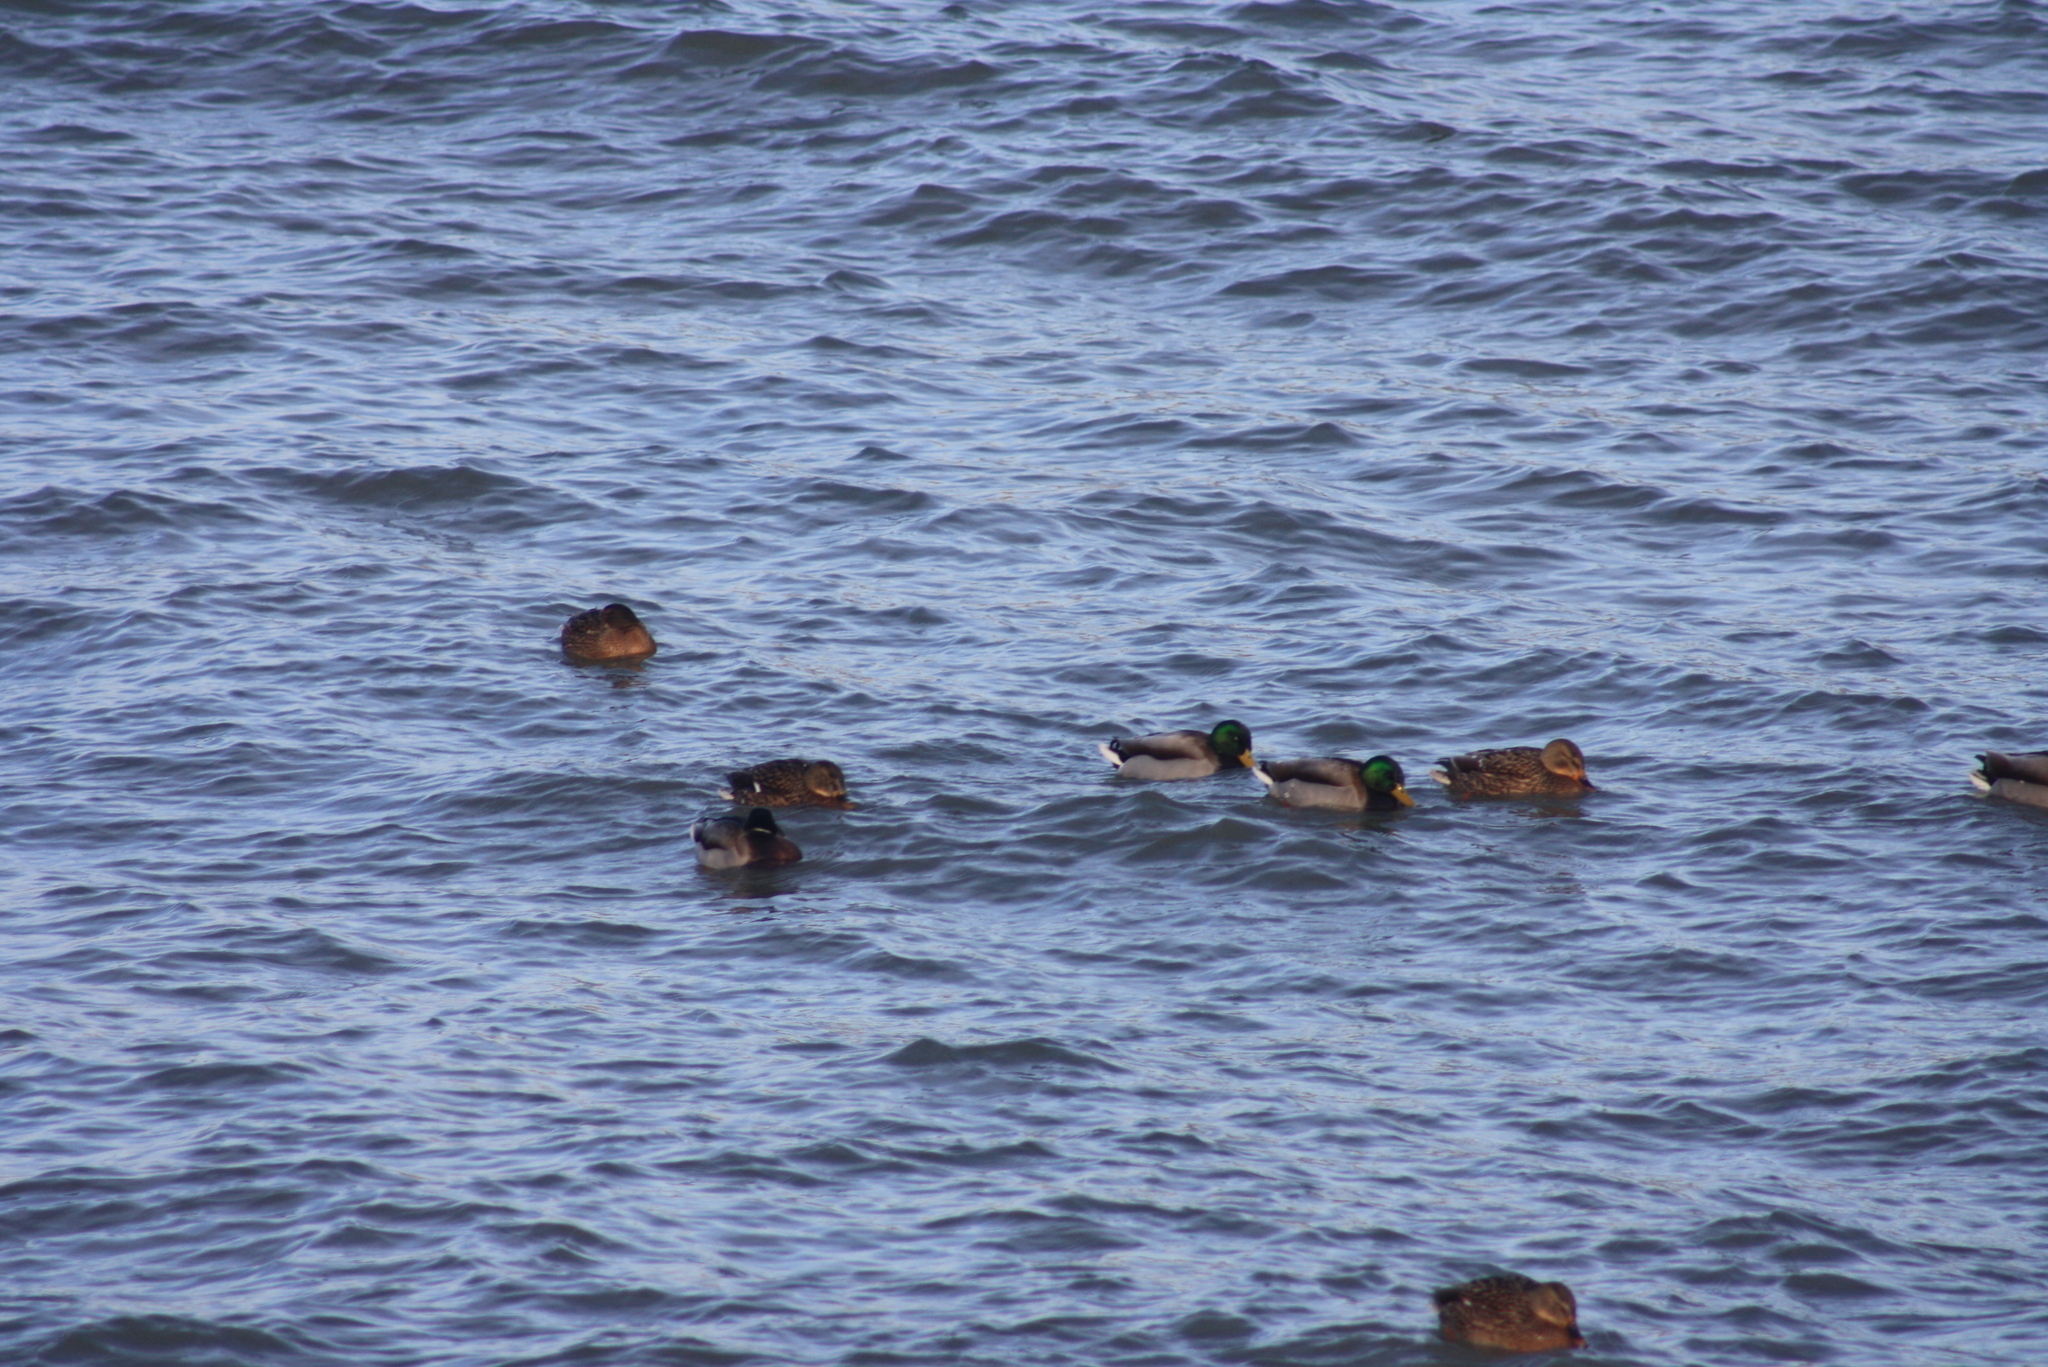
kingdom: Animalia
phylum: Chordata
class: Aves
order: Anseriformes
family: Anatidae
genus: Anas
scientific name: Anas platyrhynchos
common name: Mallard
